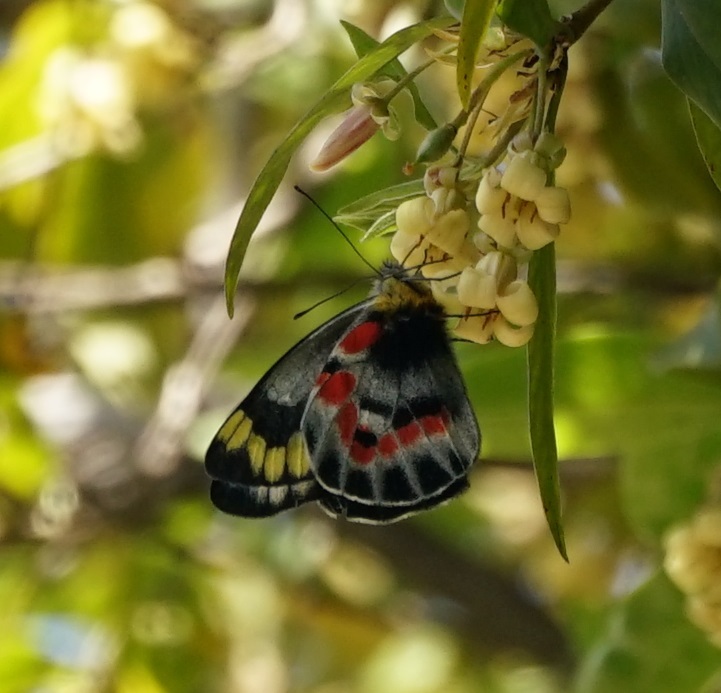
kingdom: Animalia
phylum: Arthropoda
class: Insecta
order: Lepidoptera
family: Pieridae
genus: Delias
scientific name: Delias harpalyce
